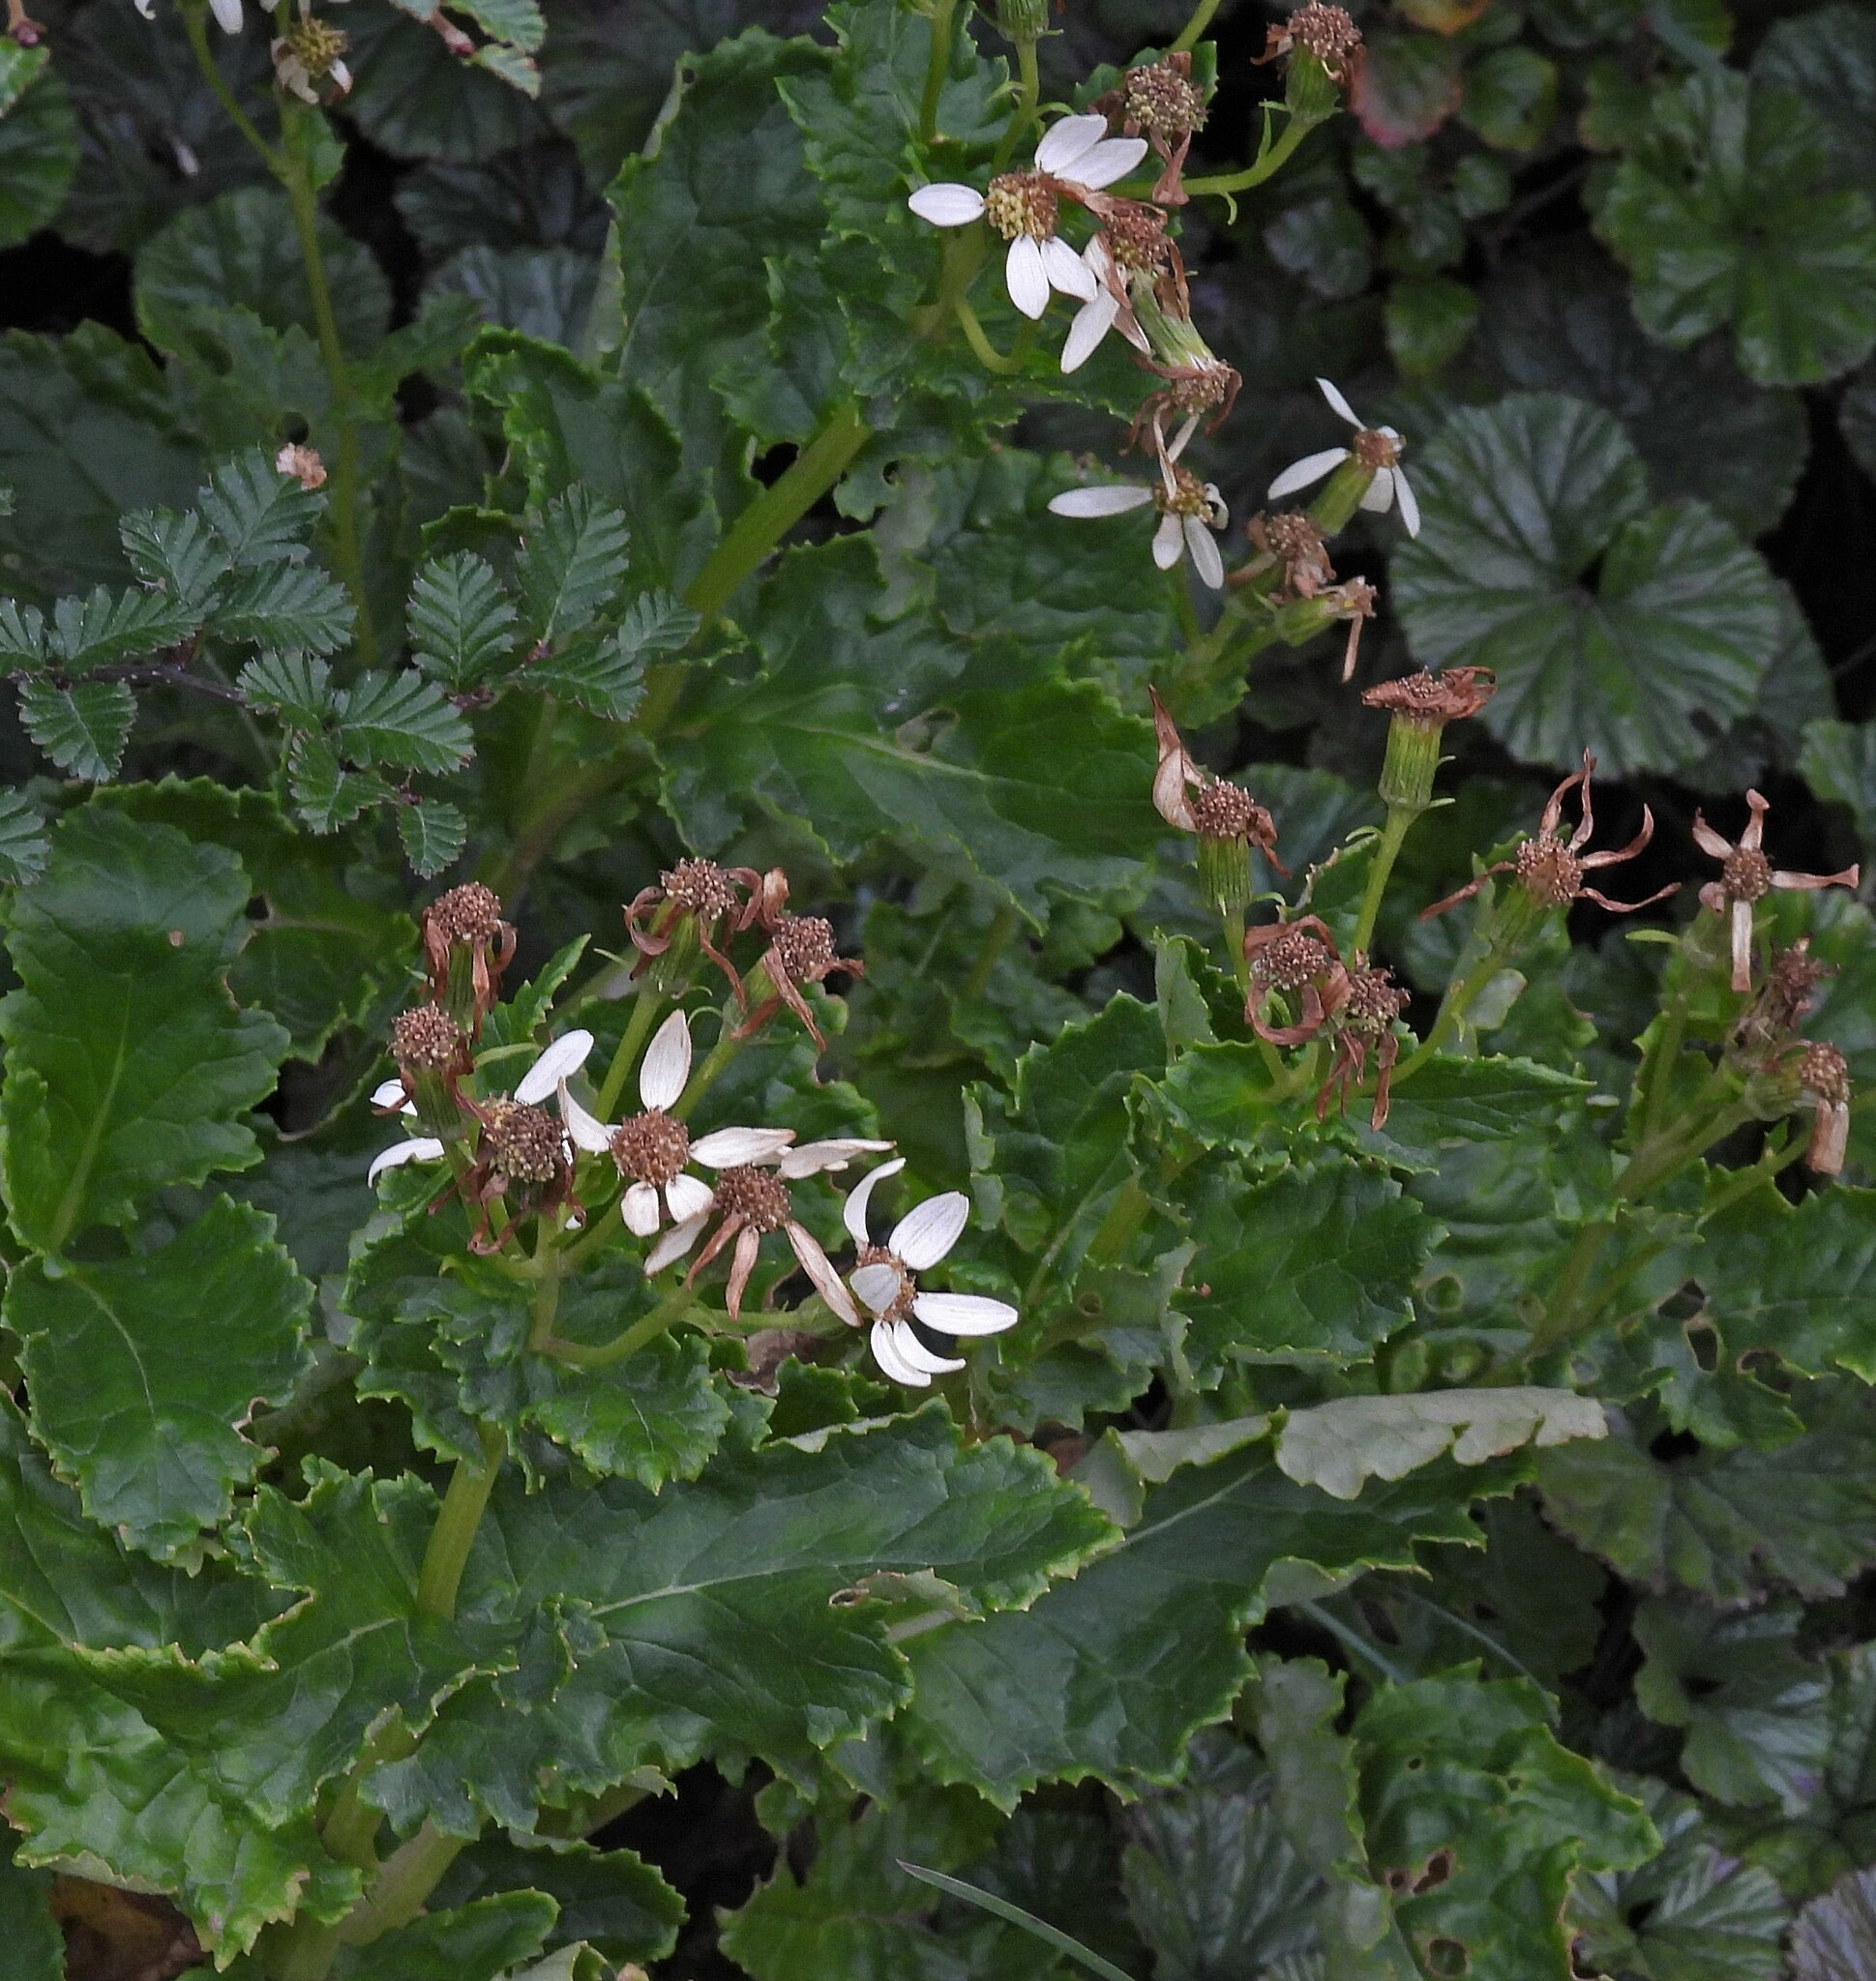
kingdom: Plantae
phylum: Tracheophyta
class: Magnoliopsida
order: Asterales
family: Asteraceae
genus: Iocenes
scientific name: Iocenes virens
